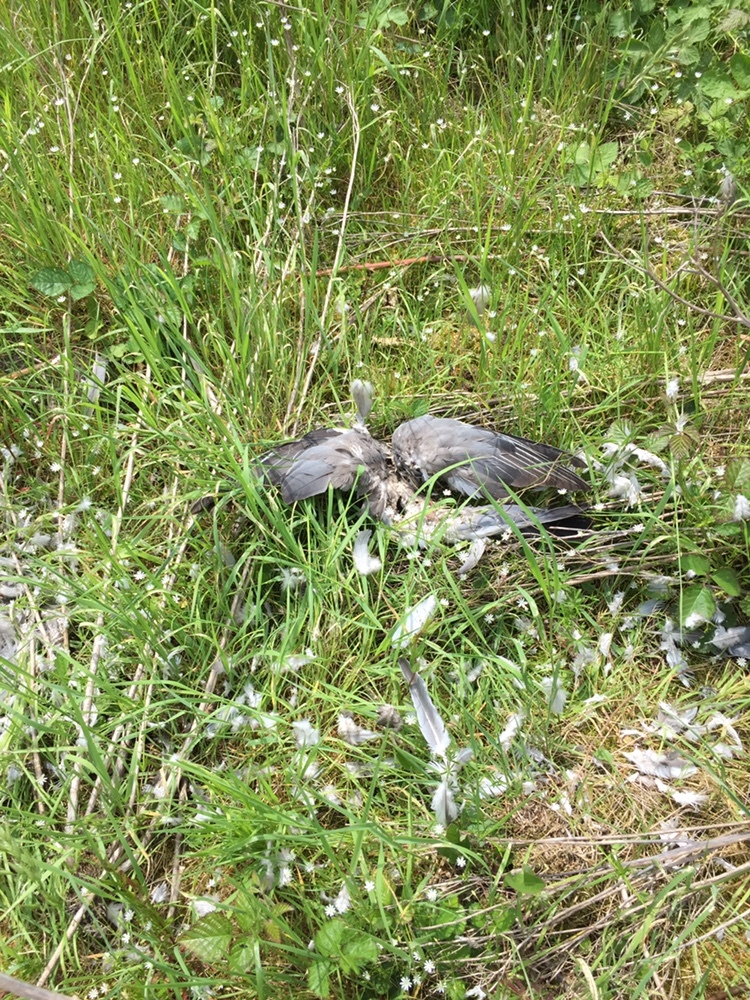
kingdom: Animalia
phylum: Chordata
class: Aves
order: Columbiformes
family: Columbidae
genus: Columba
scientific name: Columba palumbus
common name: Common wood pigeon
